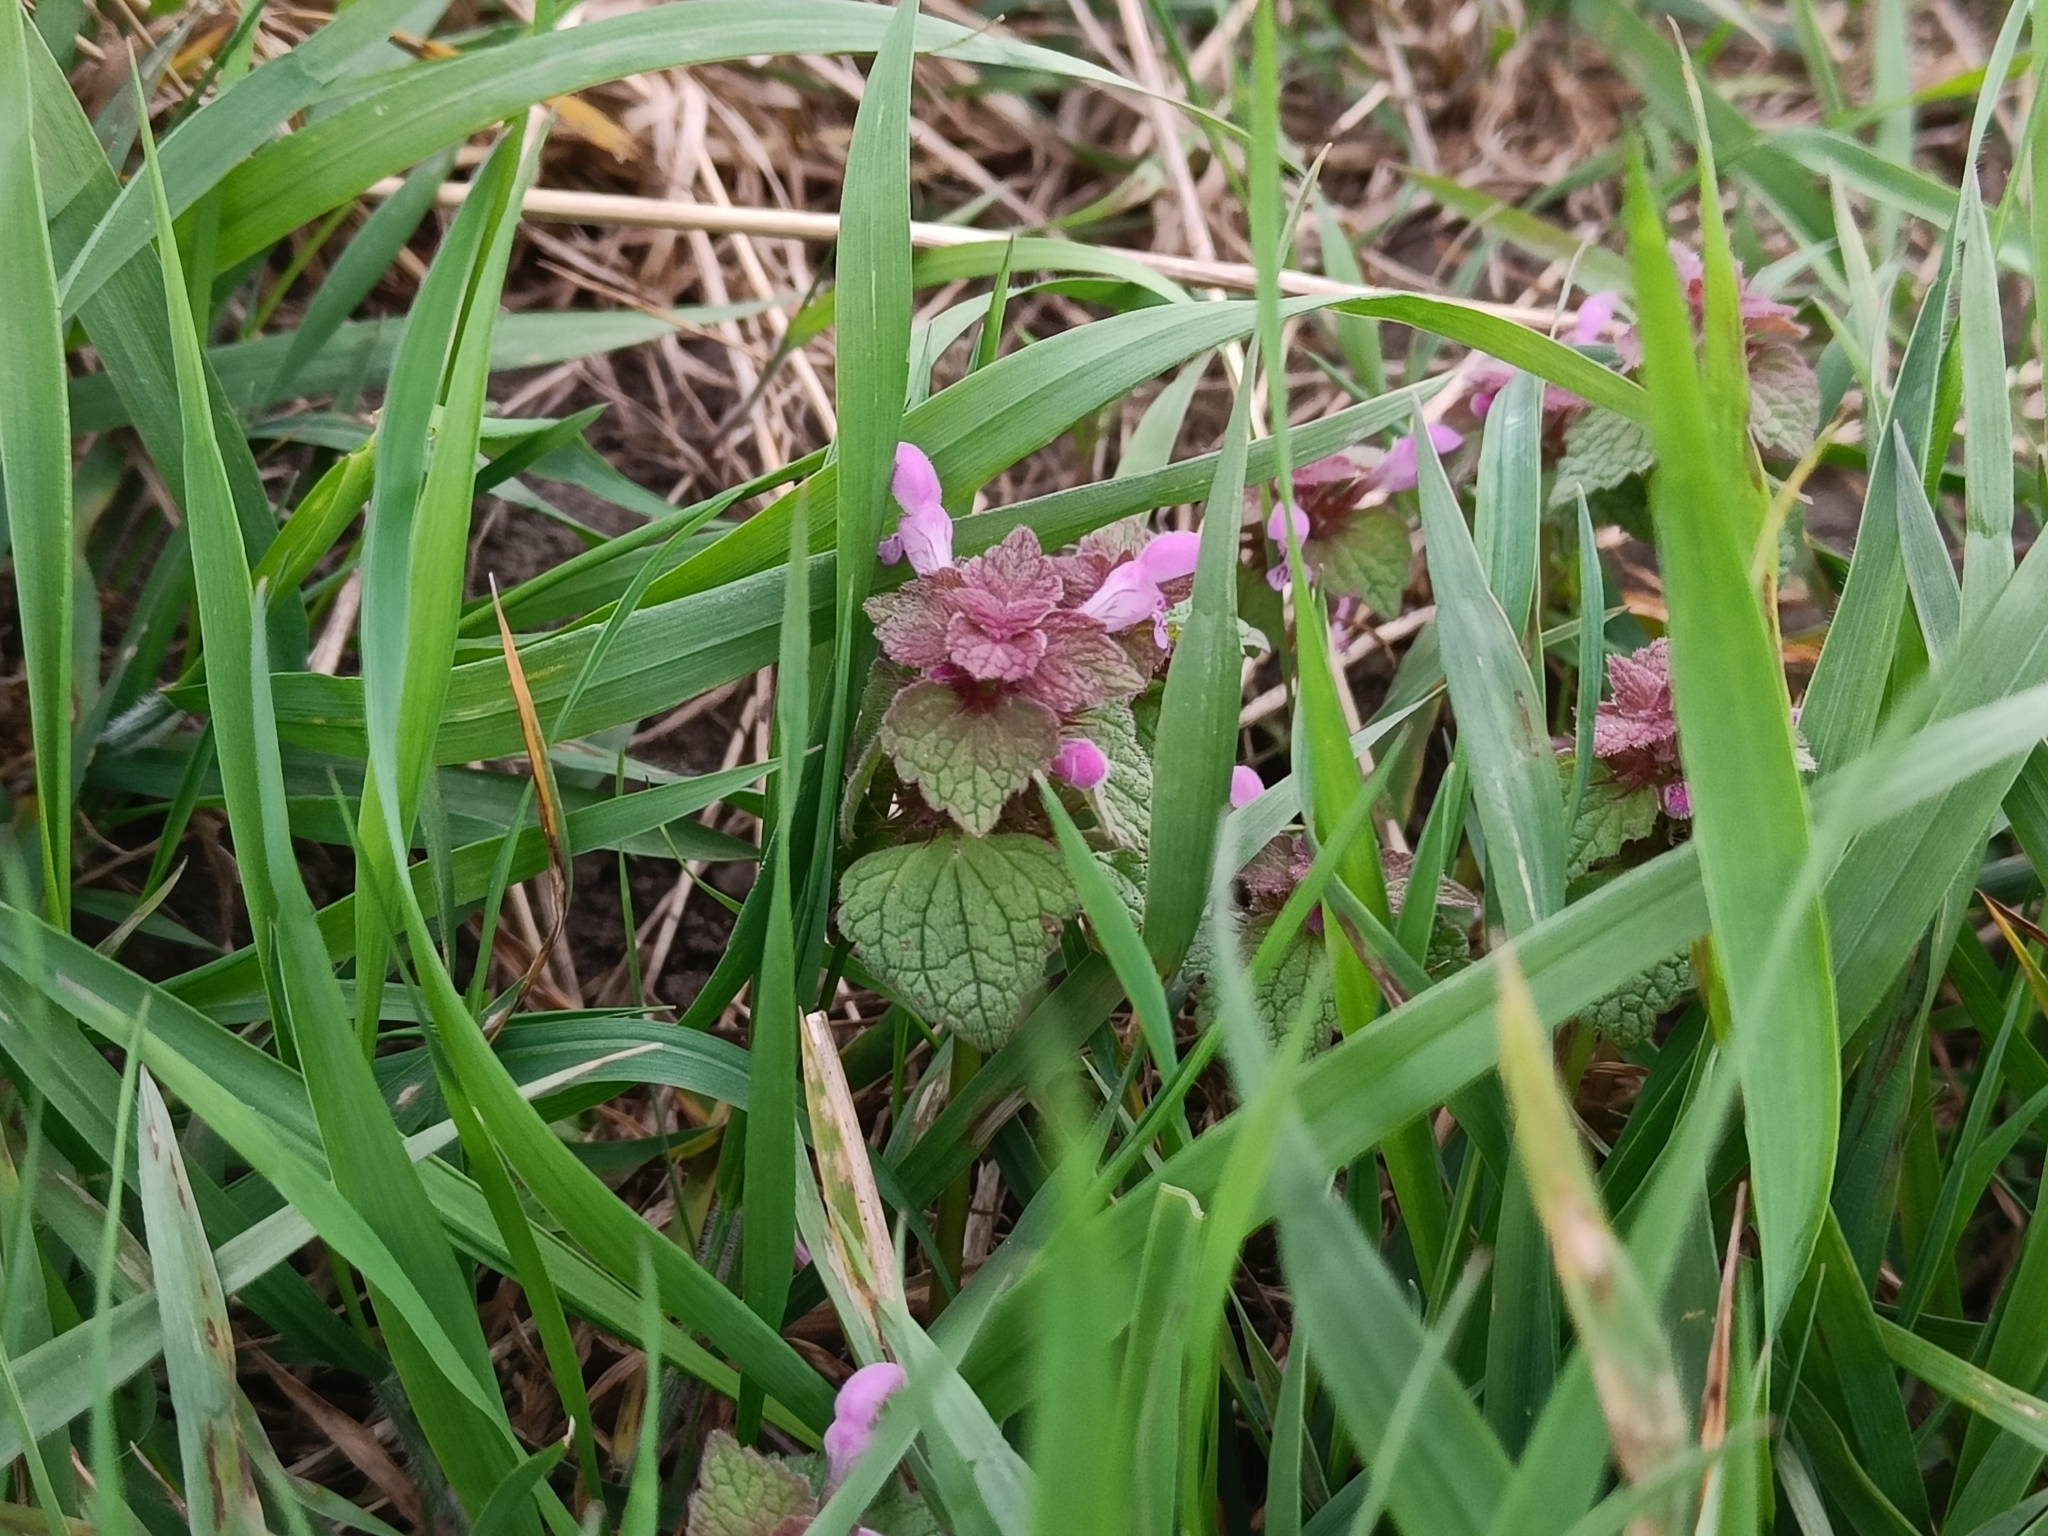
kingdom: Plantae
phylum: Tracheophyta
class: Magnoliopsida
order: Lamiales
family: Lamiaceae
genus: Lamium
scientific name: Lamium purpureum
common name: Red dead-nettle
